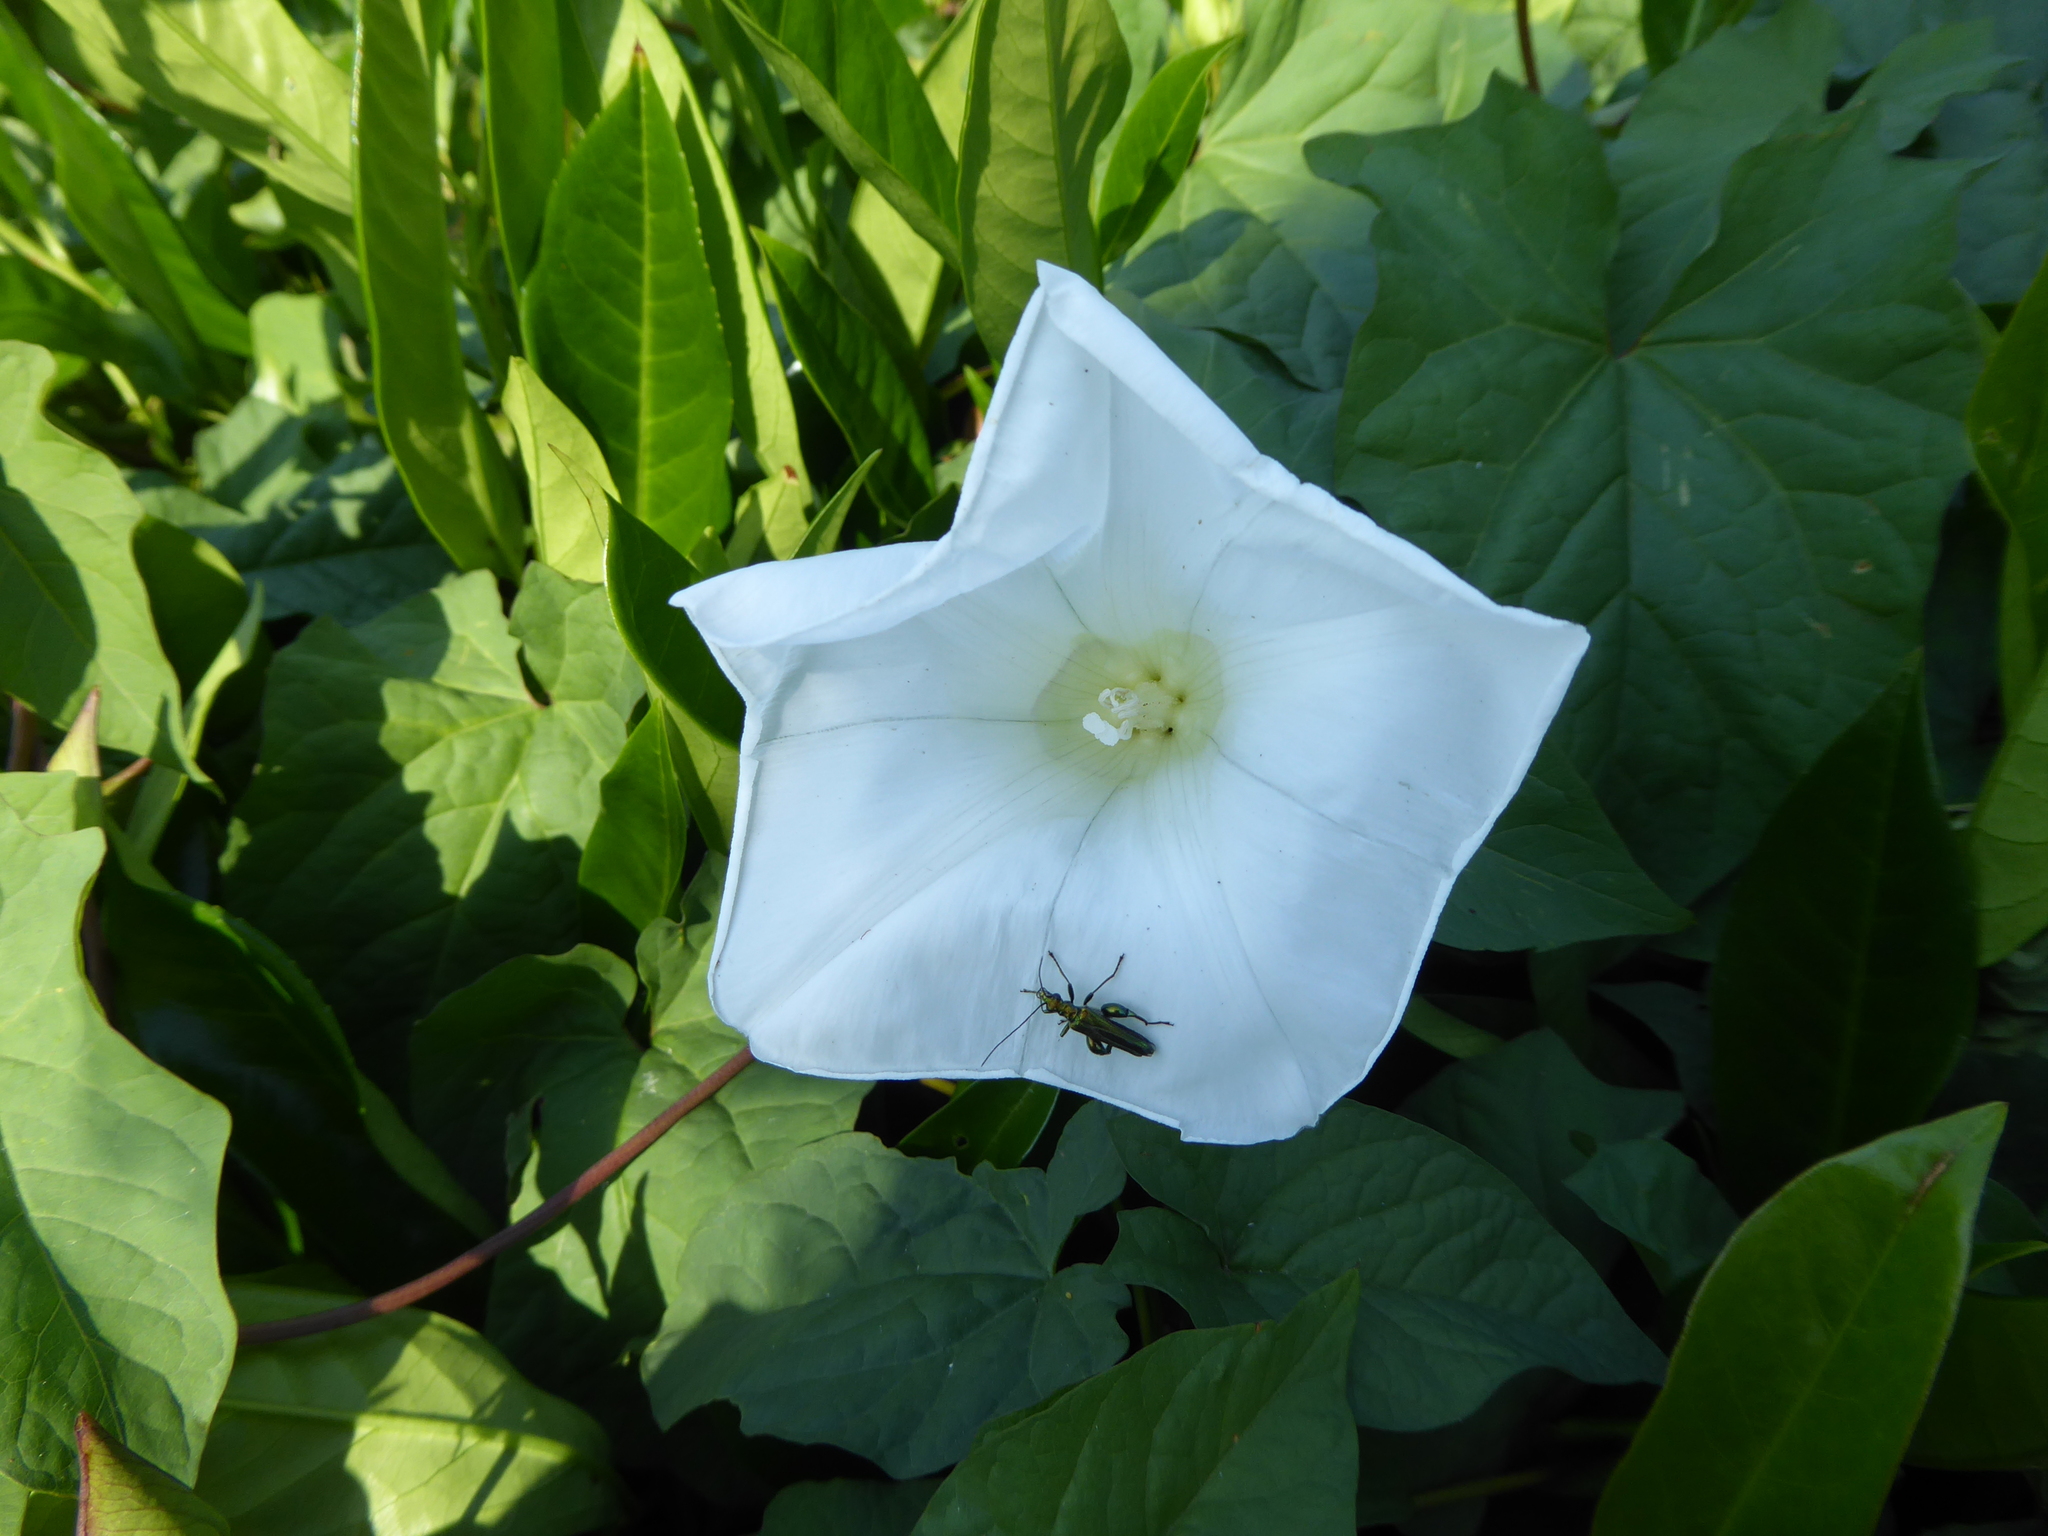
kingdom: Plantae
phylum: Tracheophyta
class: Magnoliopsida
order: Solanales
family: Convolvulaceae
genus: Calystegia
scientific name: Calystegia lucana
